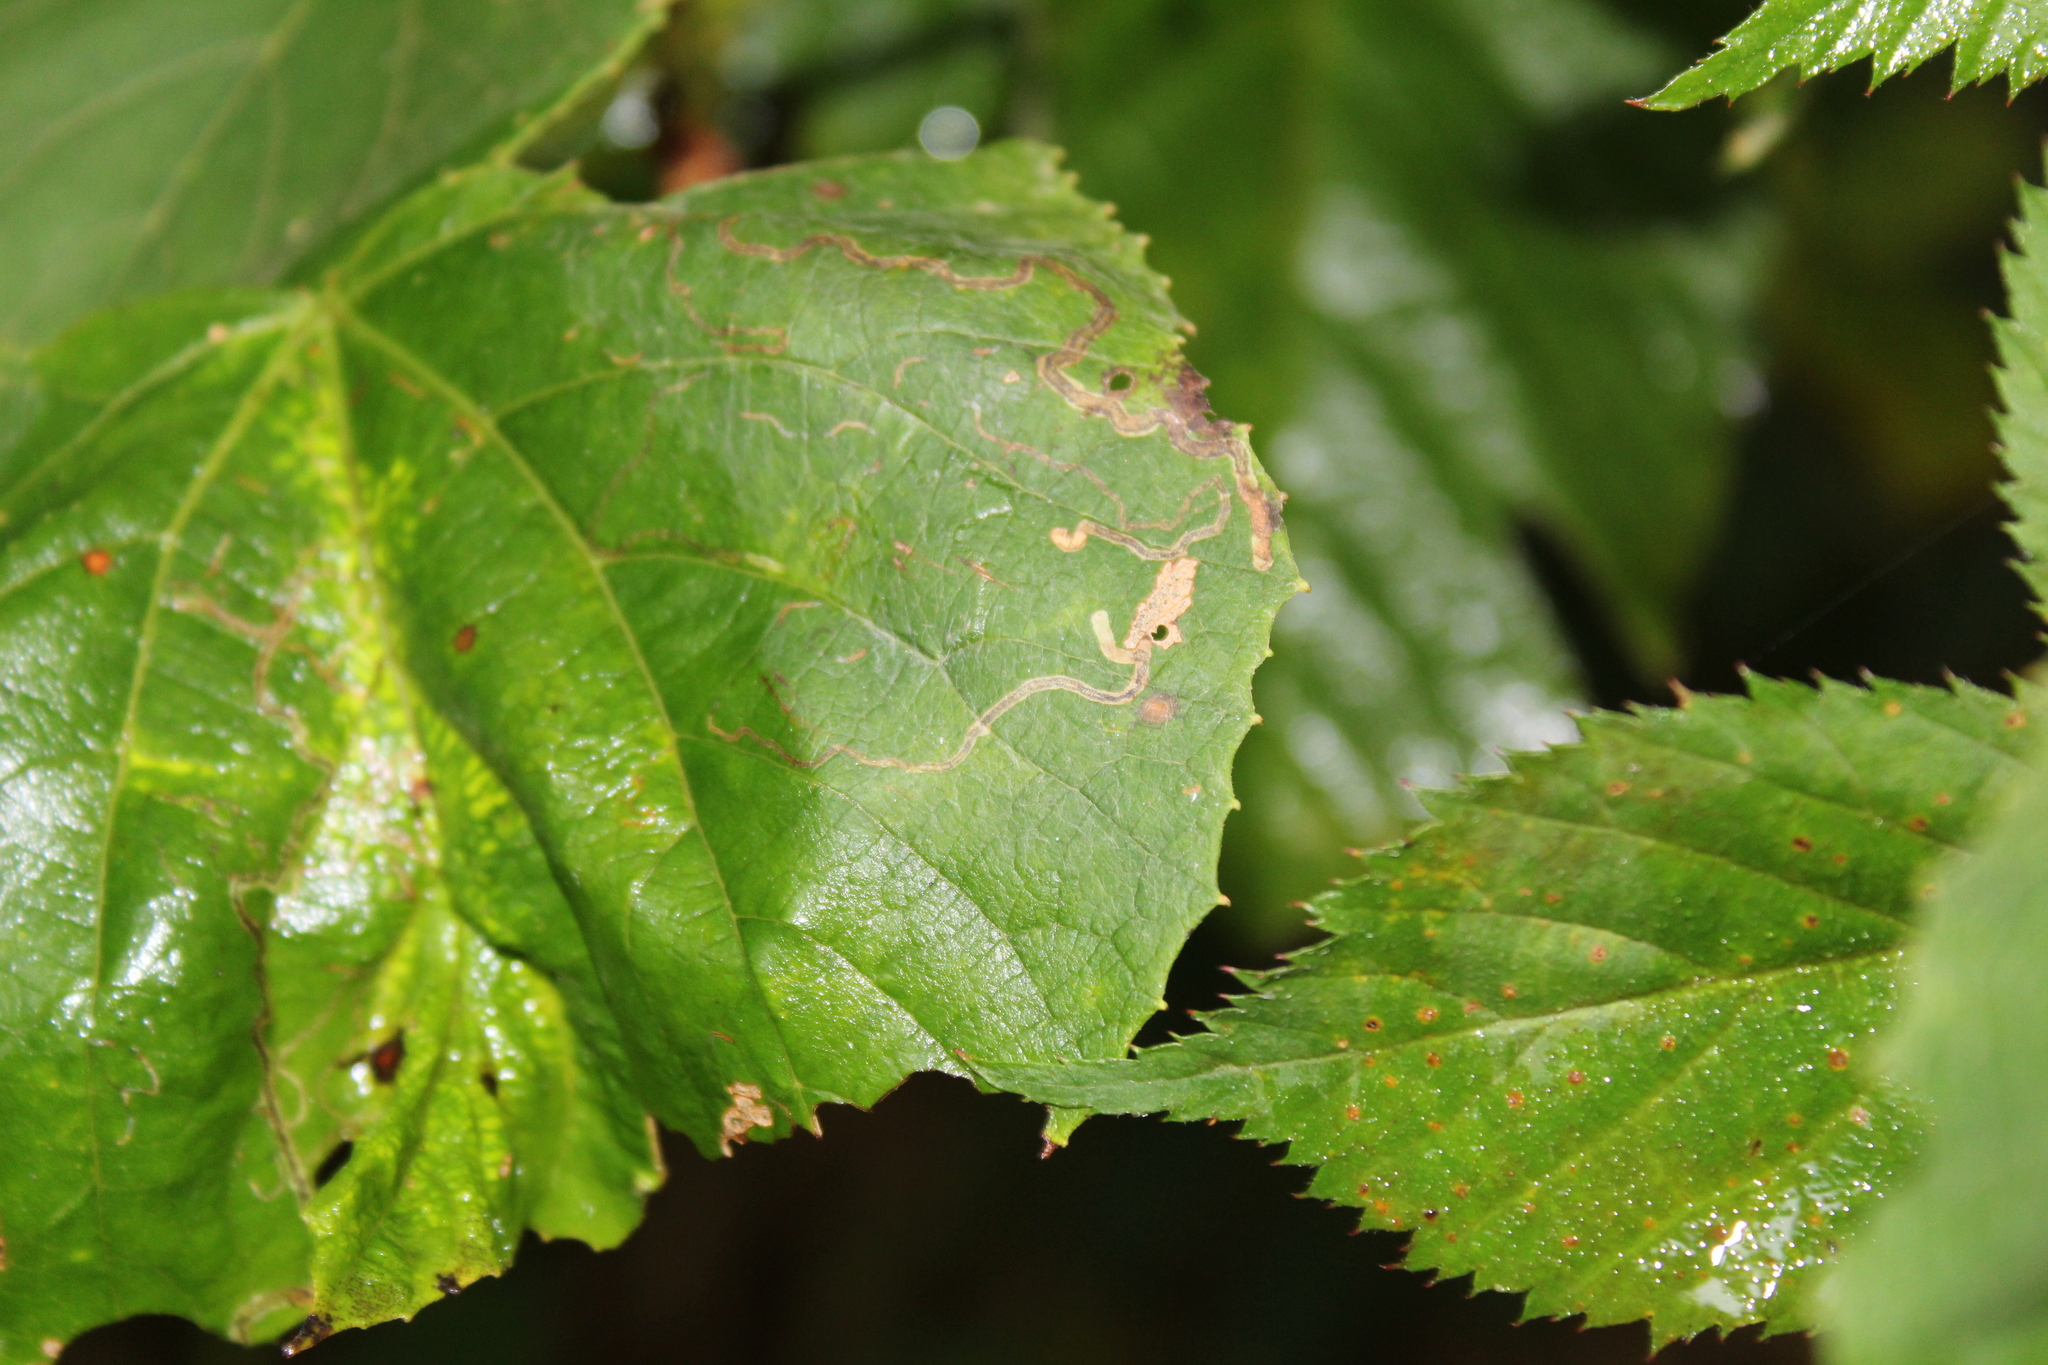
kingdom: Animalia
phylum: Arthropoda
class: Insecta
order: Lepidoptera
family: Gracillariidae
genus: Phyllocnistis
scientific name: Phyllocnistis vitifoliella
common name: Grape leaf-miner moth
